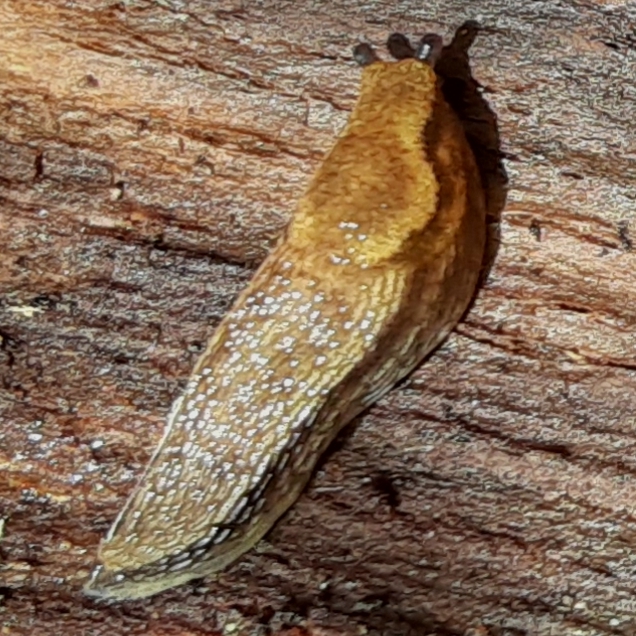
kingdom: Animalia
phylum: Mollusca
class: Gastropoda
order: Stylommatophora
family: Arionidae
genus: Arion
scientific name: Arion subfuscus
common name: Dusky arion
